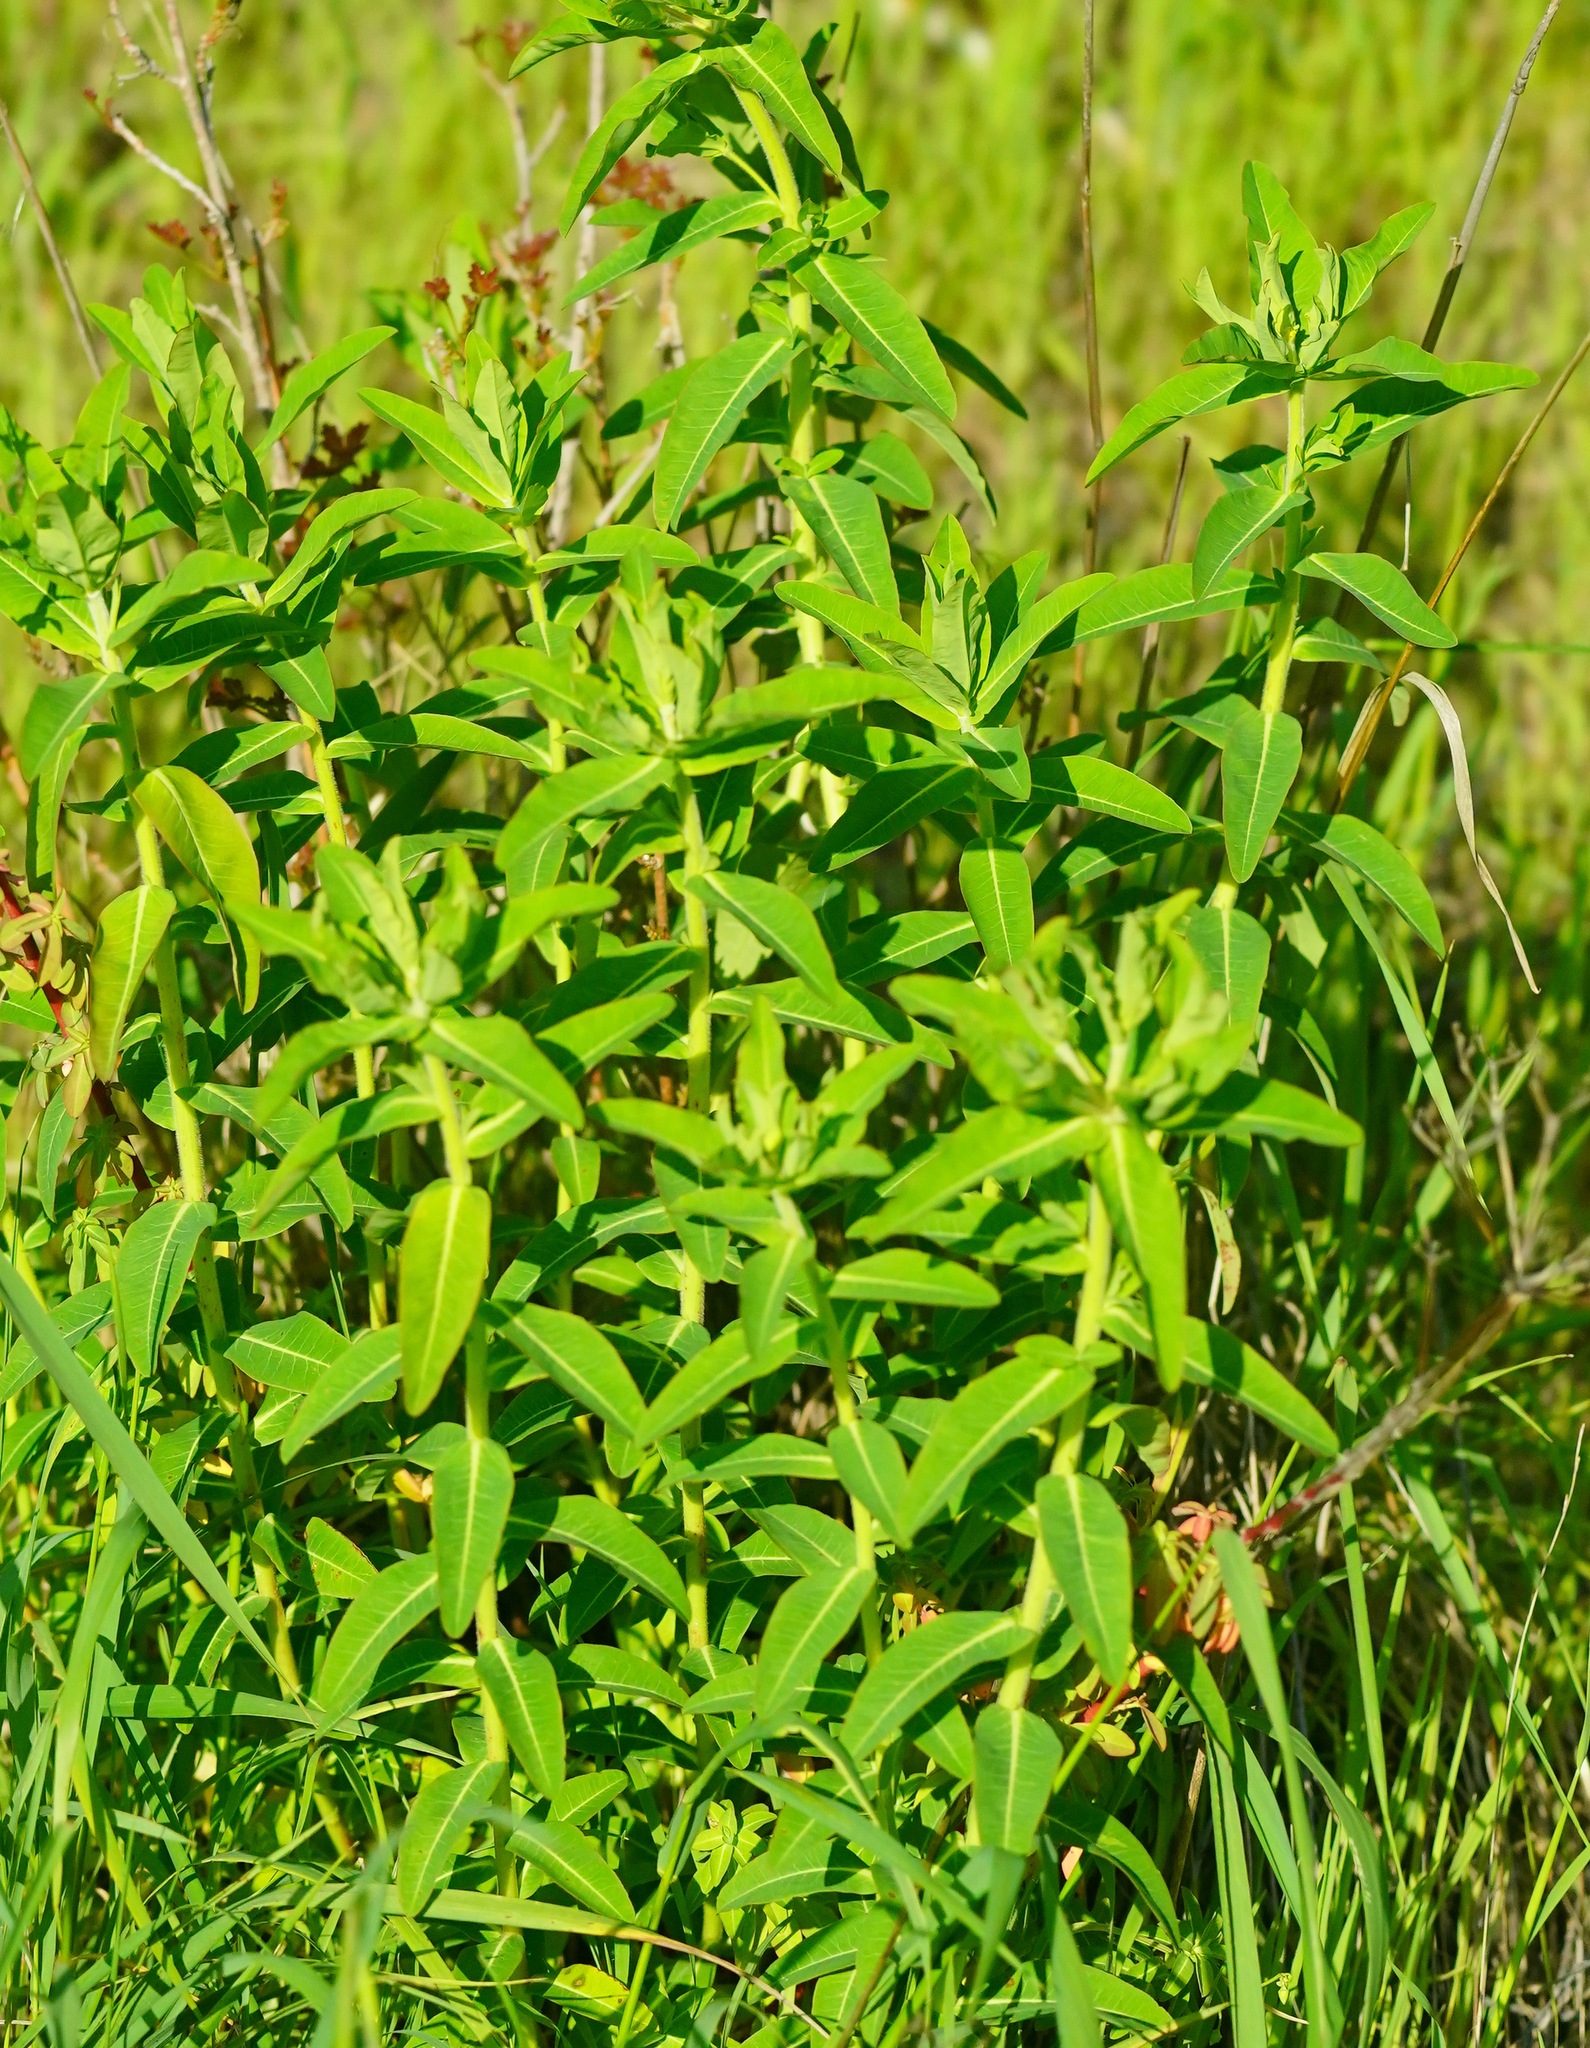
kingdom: Plantae
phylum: Tracheophyta
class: Magnoliopsida
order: Malpighiales
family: Euphorbiaceae
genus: Euphorbia
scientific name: Euphorbia oblongata
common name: Balkan spurge
